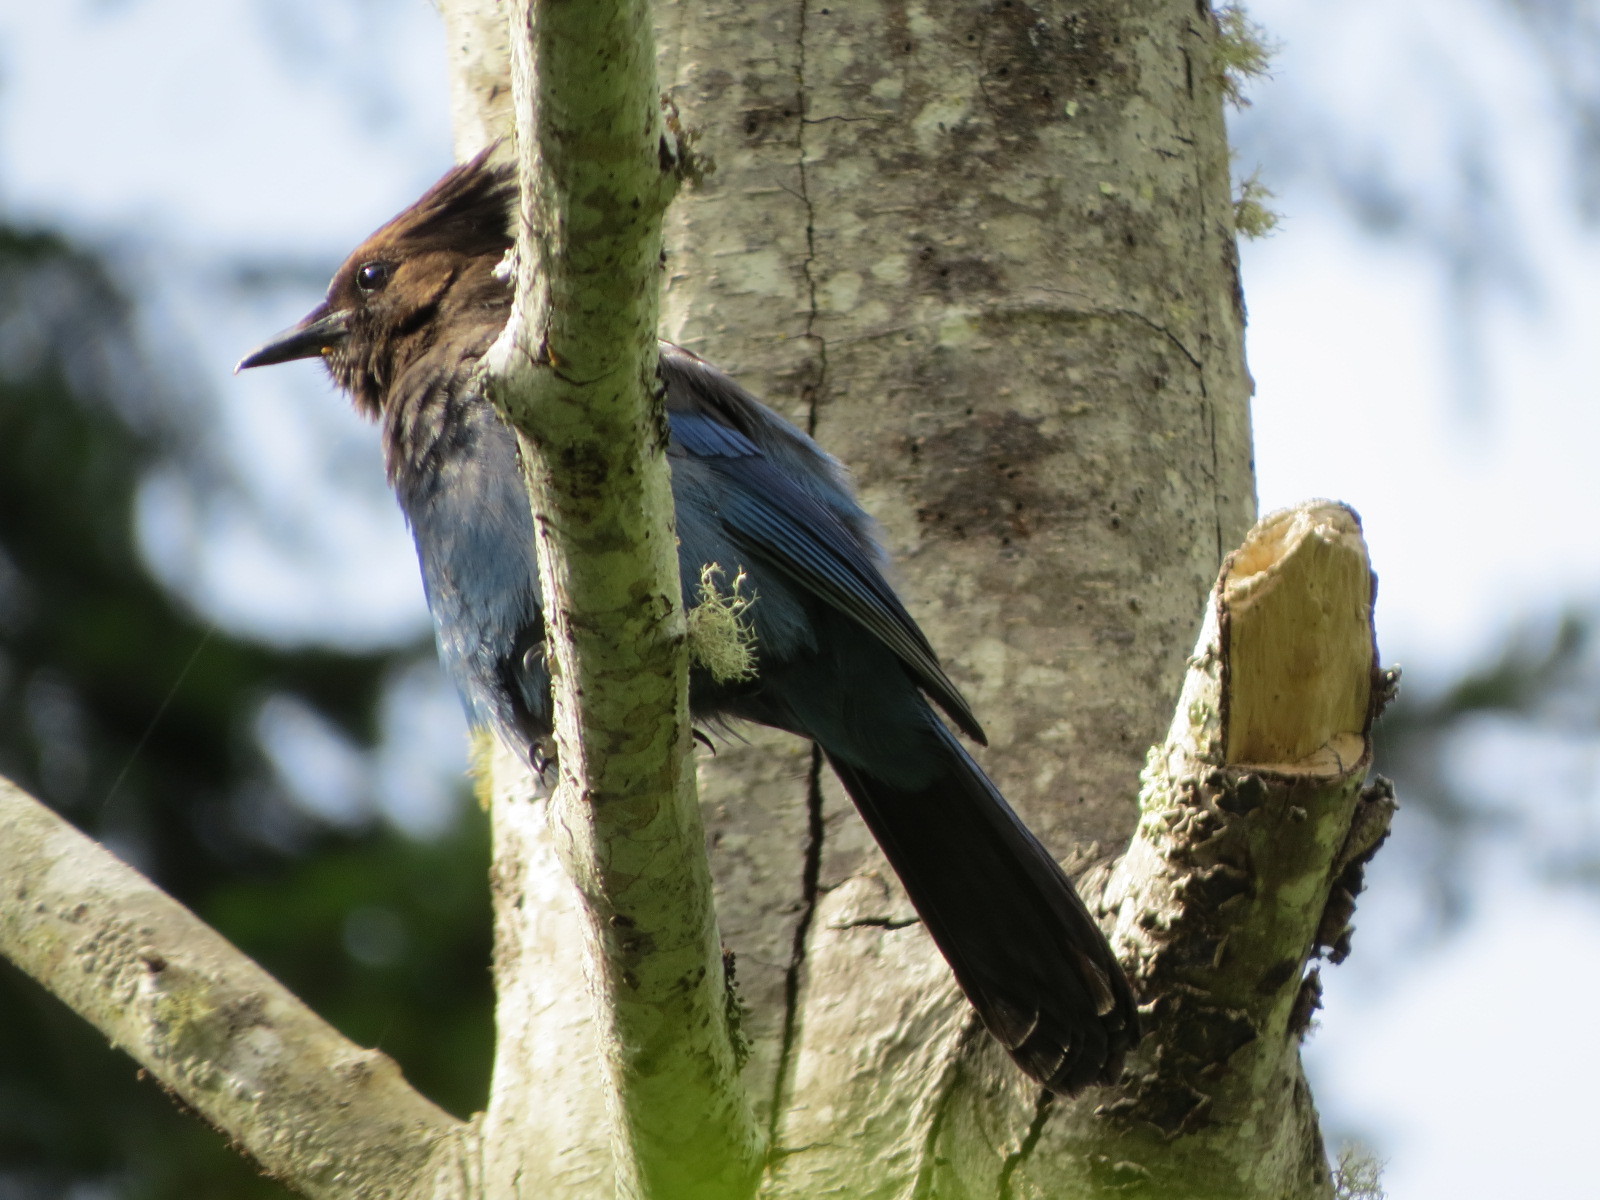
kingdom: Animalia
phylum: Chordata
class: Aves
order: Passeriformes
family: Corvidae
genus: Cyanocitta
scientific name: Cyanocitta stelleri
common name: Steller's jay
